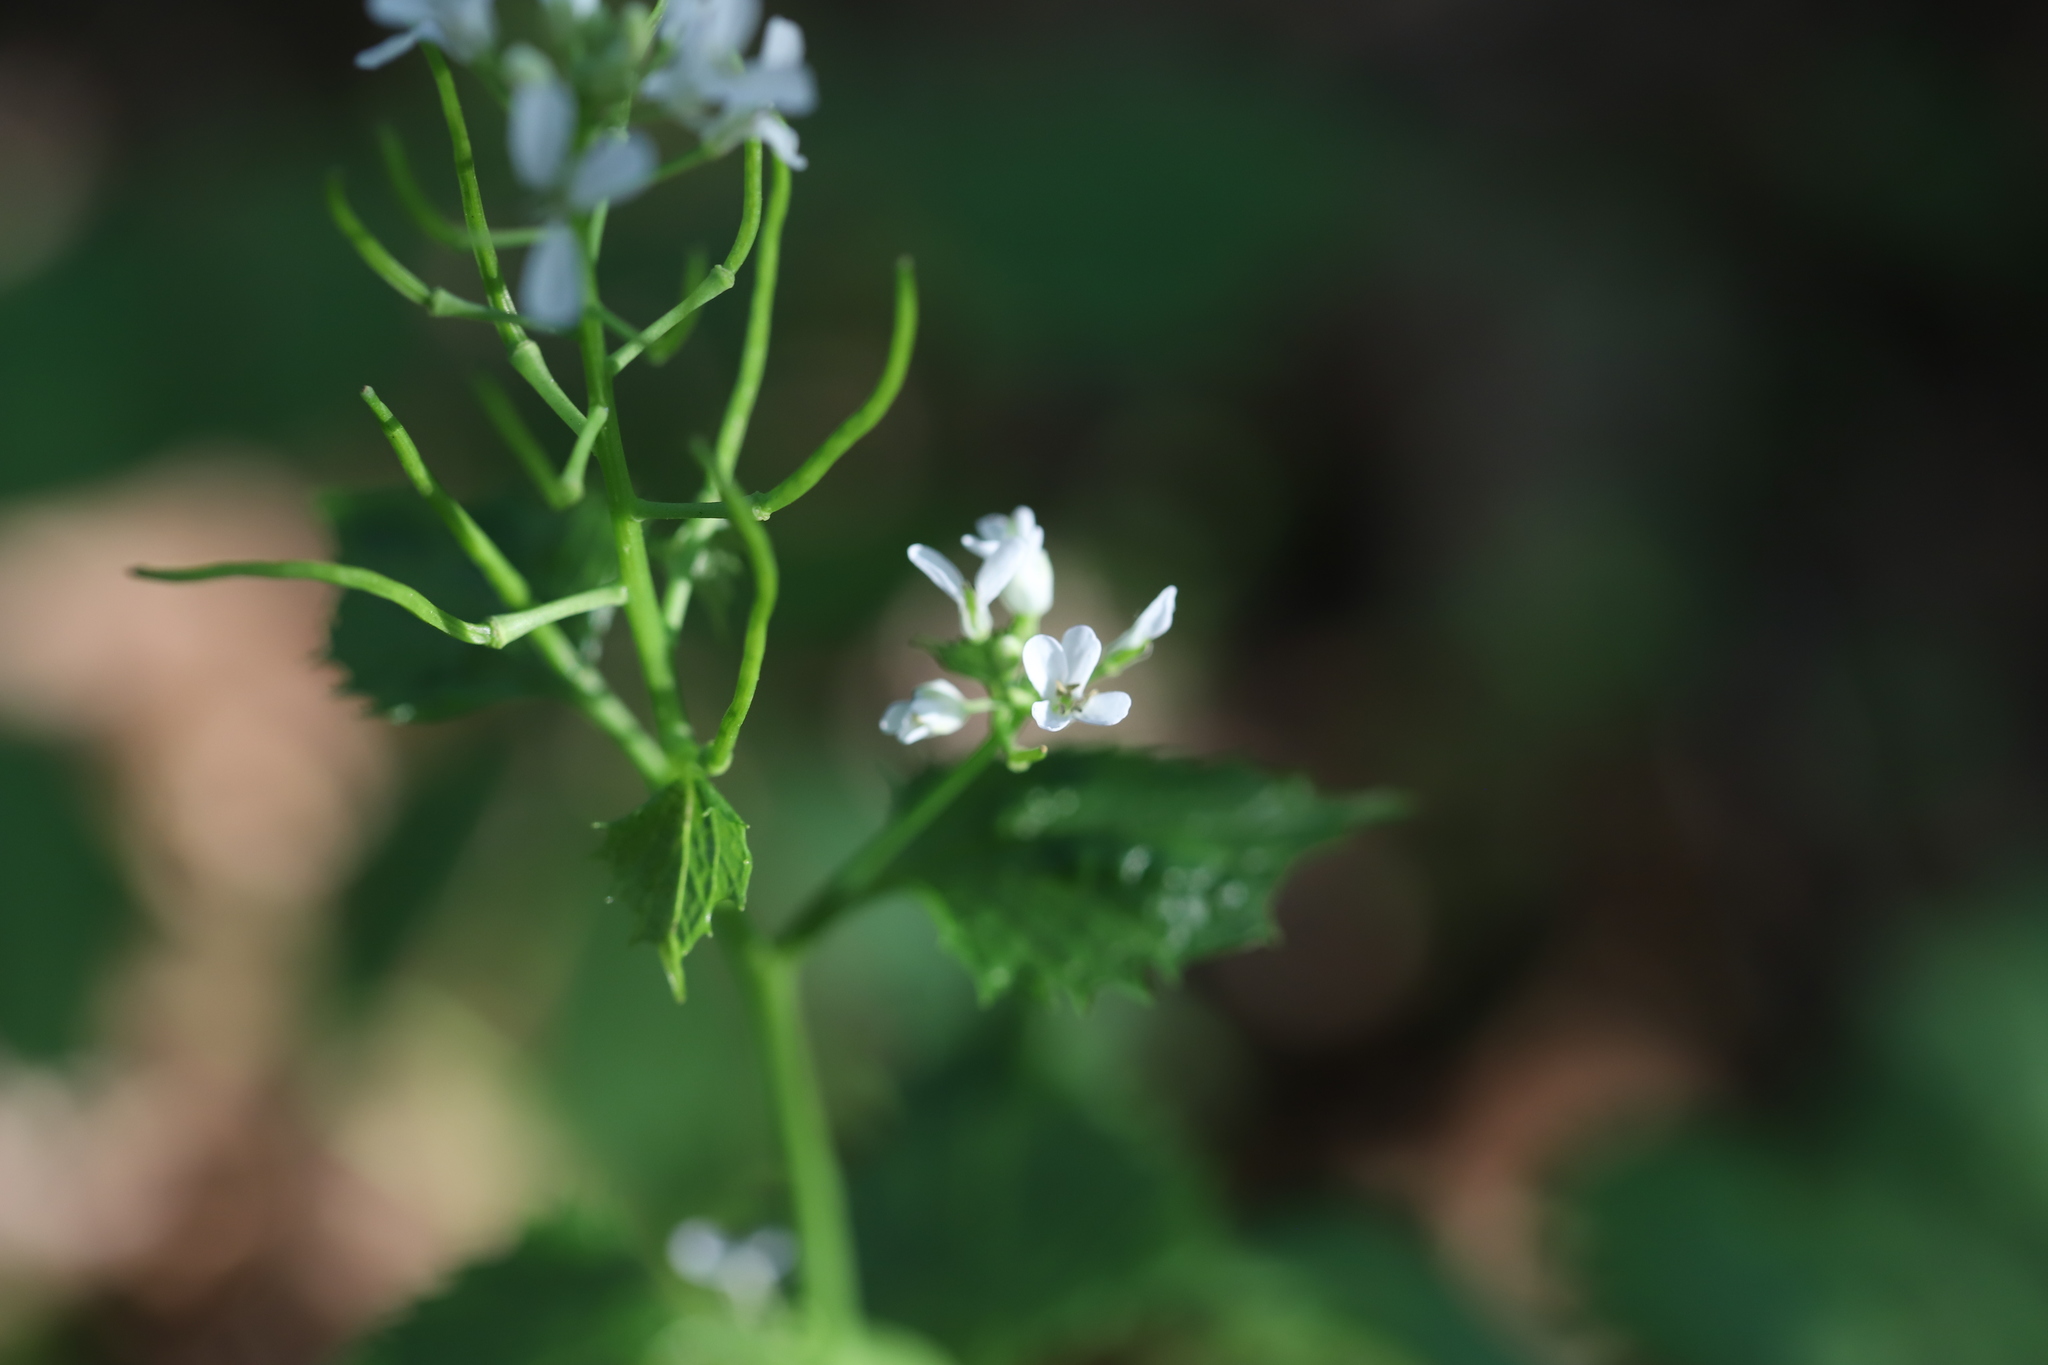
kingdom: Plantae
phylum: Tracheophyta
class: Magnoliopsida
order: Brassicales
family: Brassicaceae
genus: Alliaria
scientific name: Alliaria petiolata
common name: Garlic mustard
